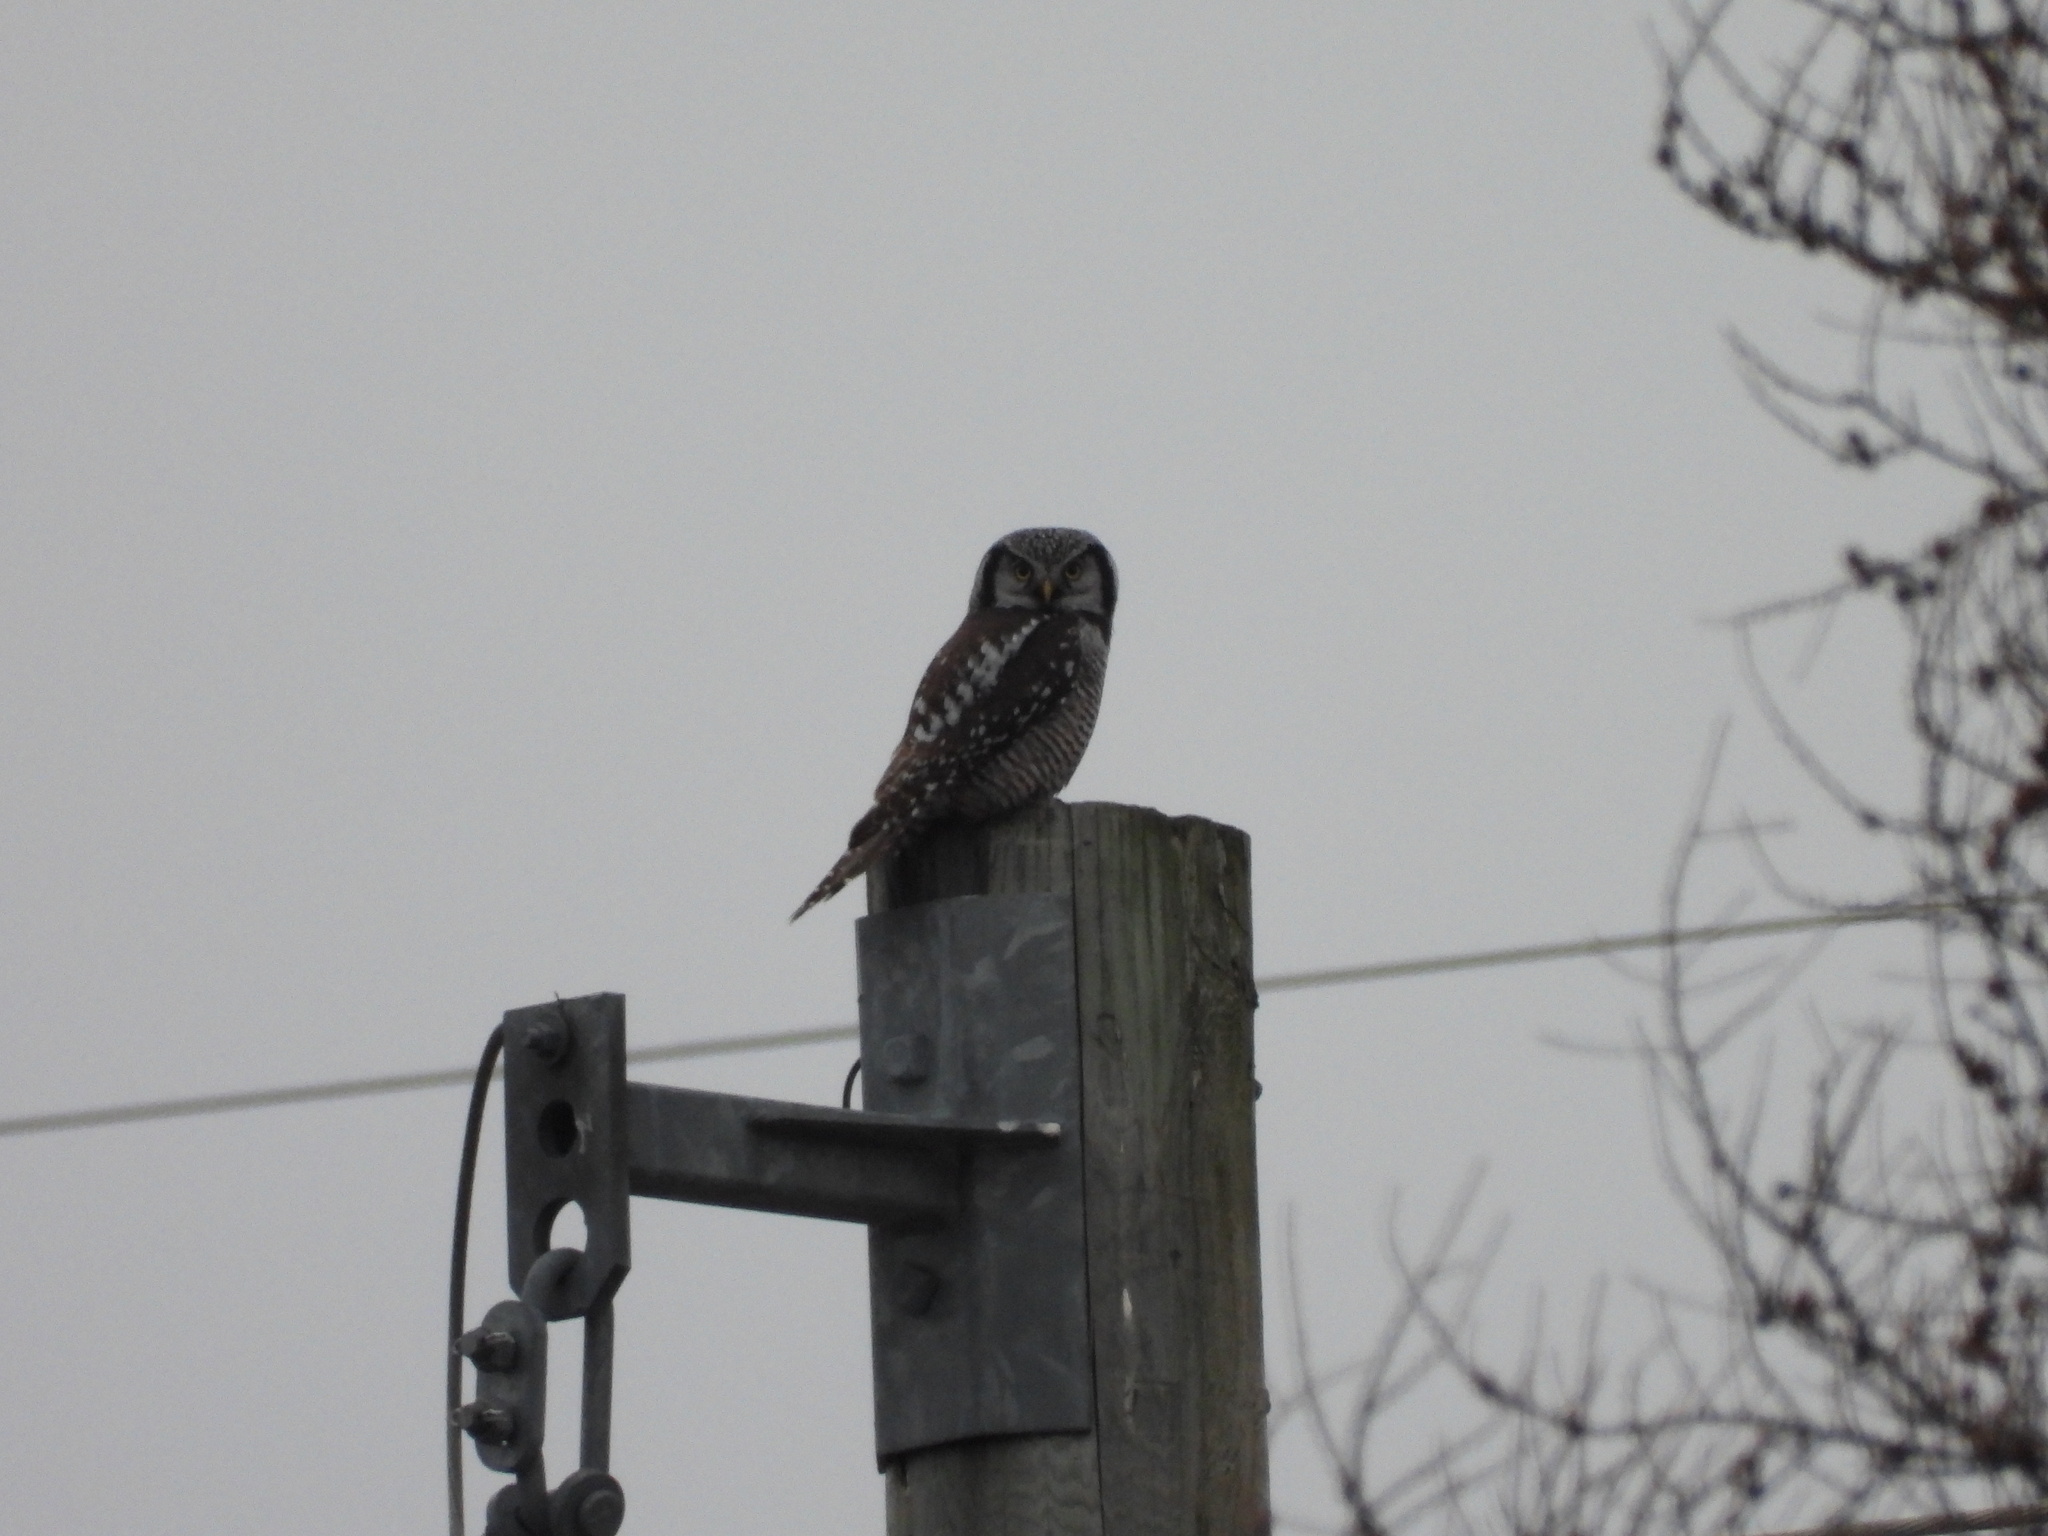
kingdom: Animalia
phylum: Chordata
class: Aves
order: Strigiformes
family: Strigidae
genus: Surnia
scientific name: Surnia ulula
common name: Northern hawk-owl
